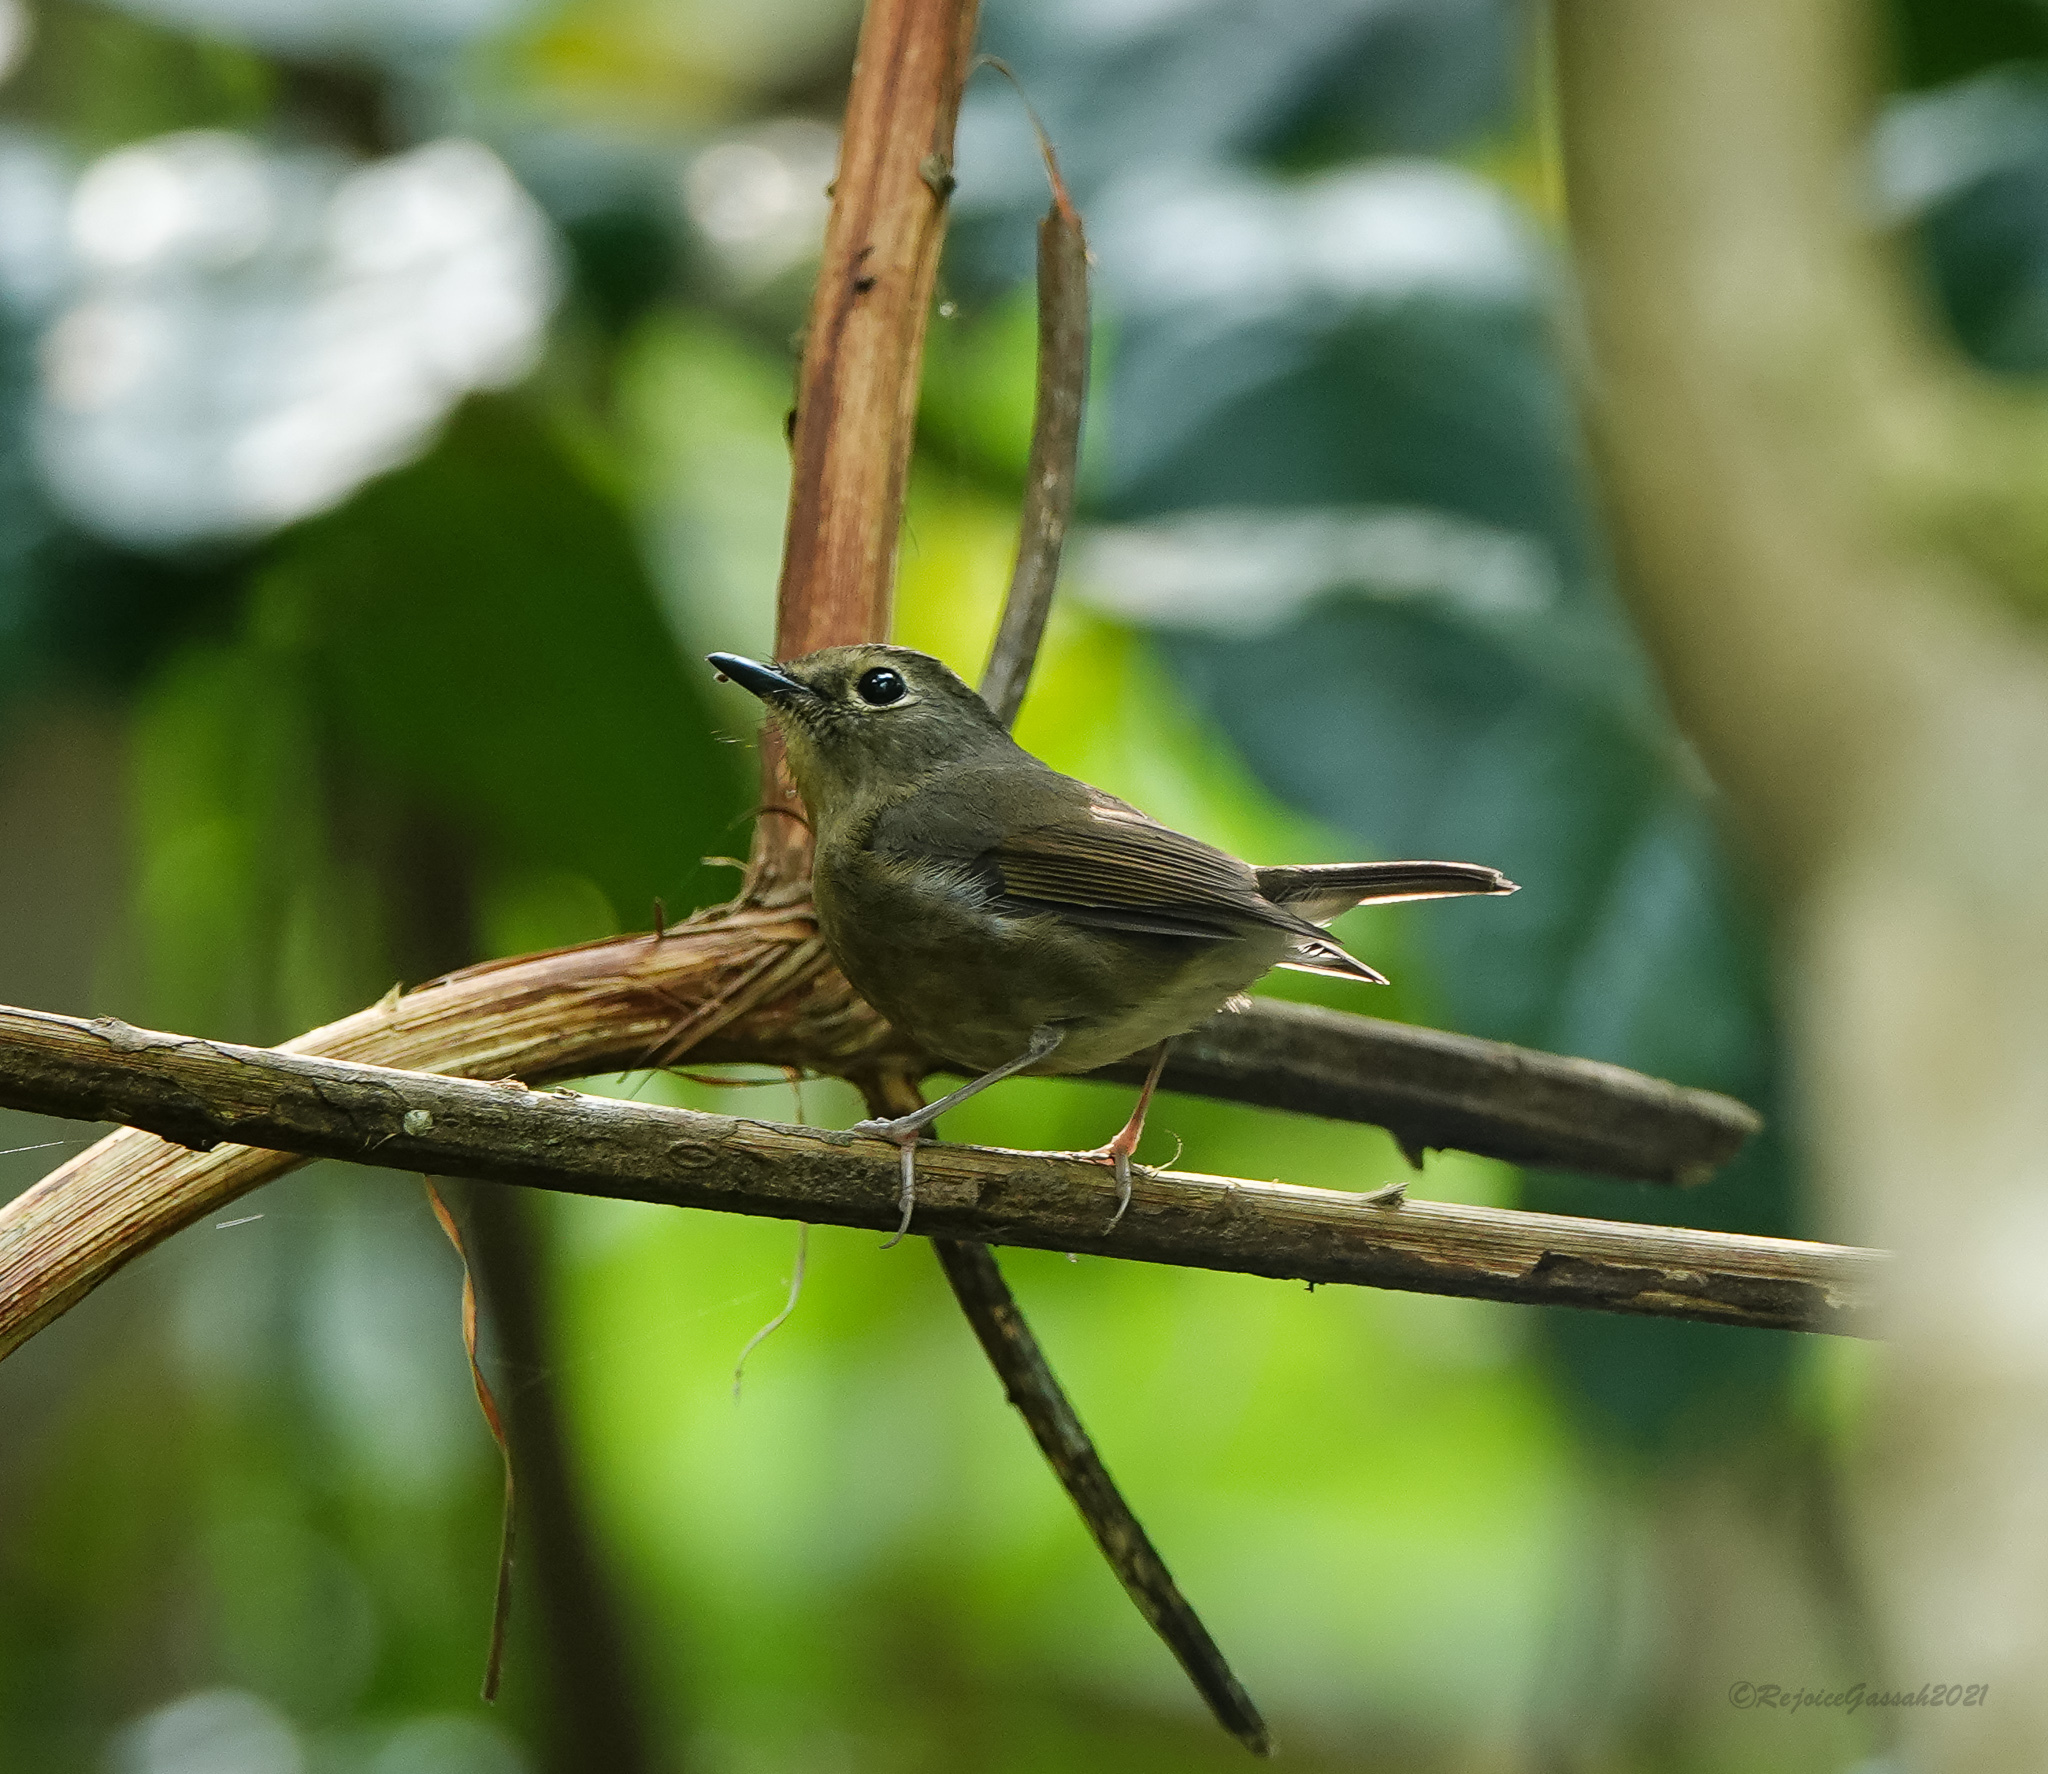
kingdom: Animalia
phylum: Chordata
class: Aves
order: Passeriformes
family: Muscicapidae
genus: Ficedula
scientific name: Ficedula hyperythra
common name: Snowy-browed flycatcher
